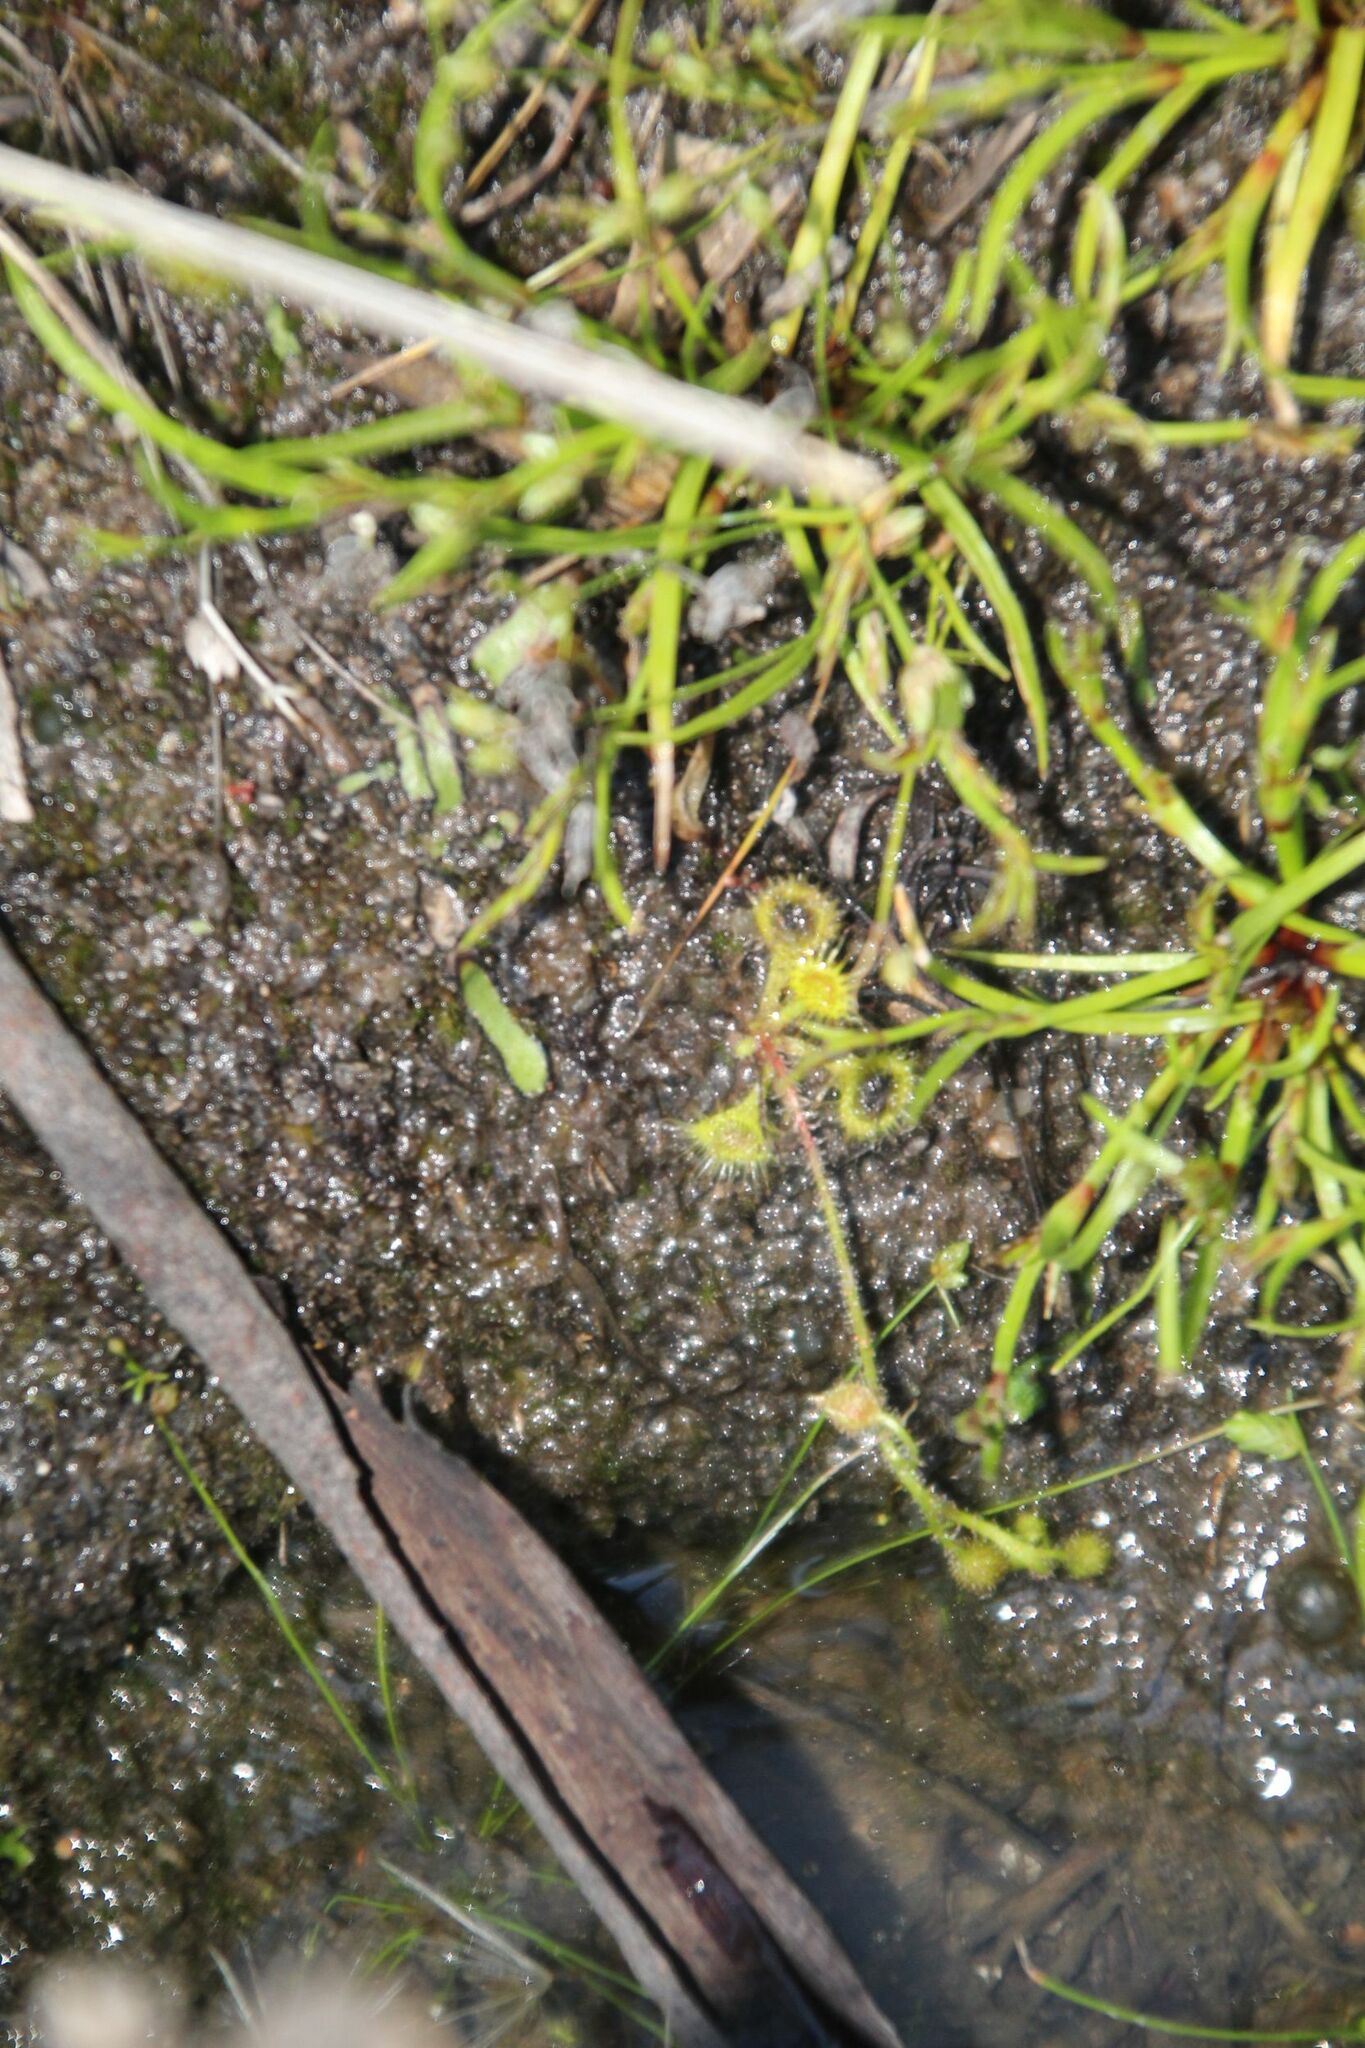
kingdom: Plantae
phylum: Tracheophyta
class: Magnoliopsida
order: Caryophyllales
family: Droseraceae
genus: Drosera
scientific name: Drosera glanduligera
